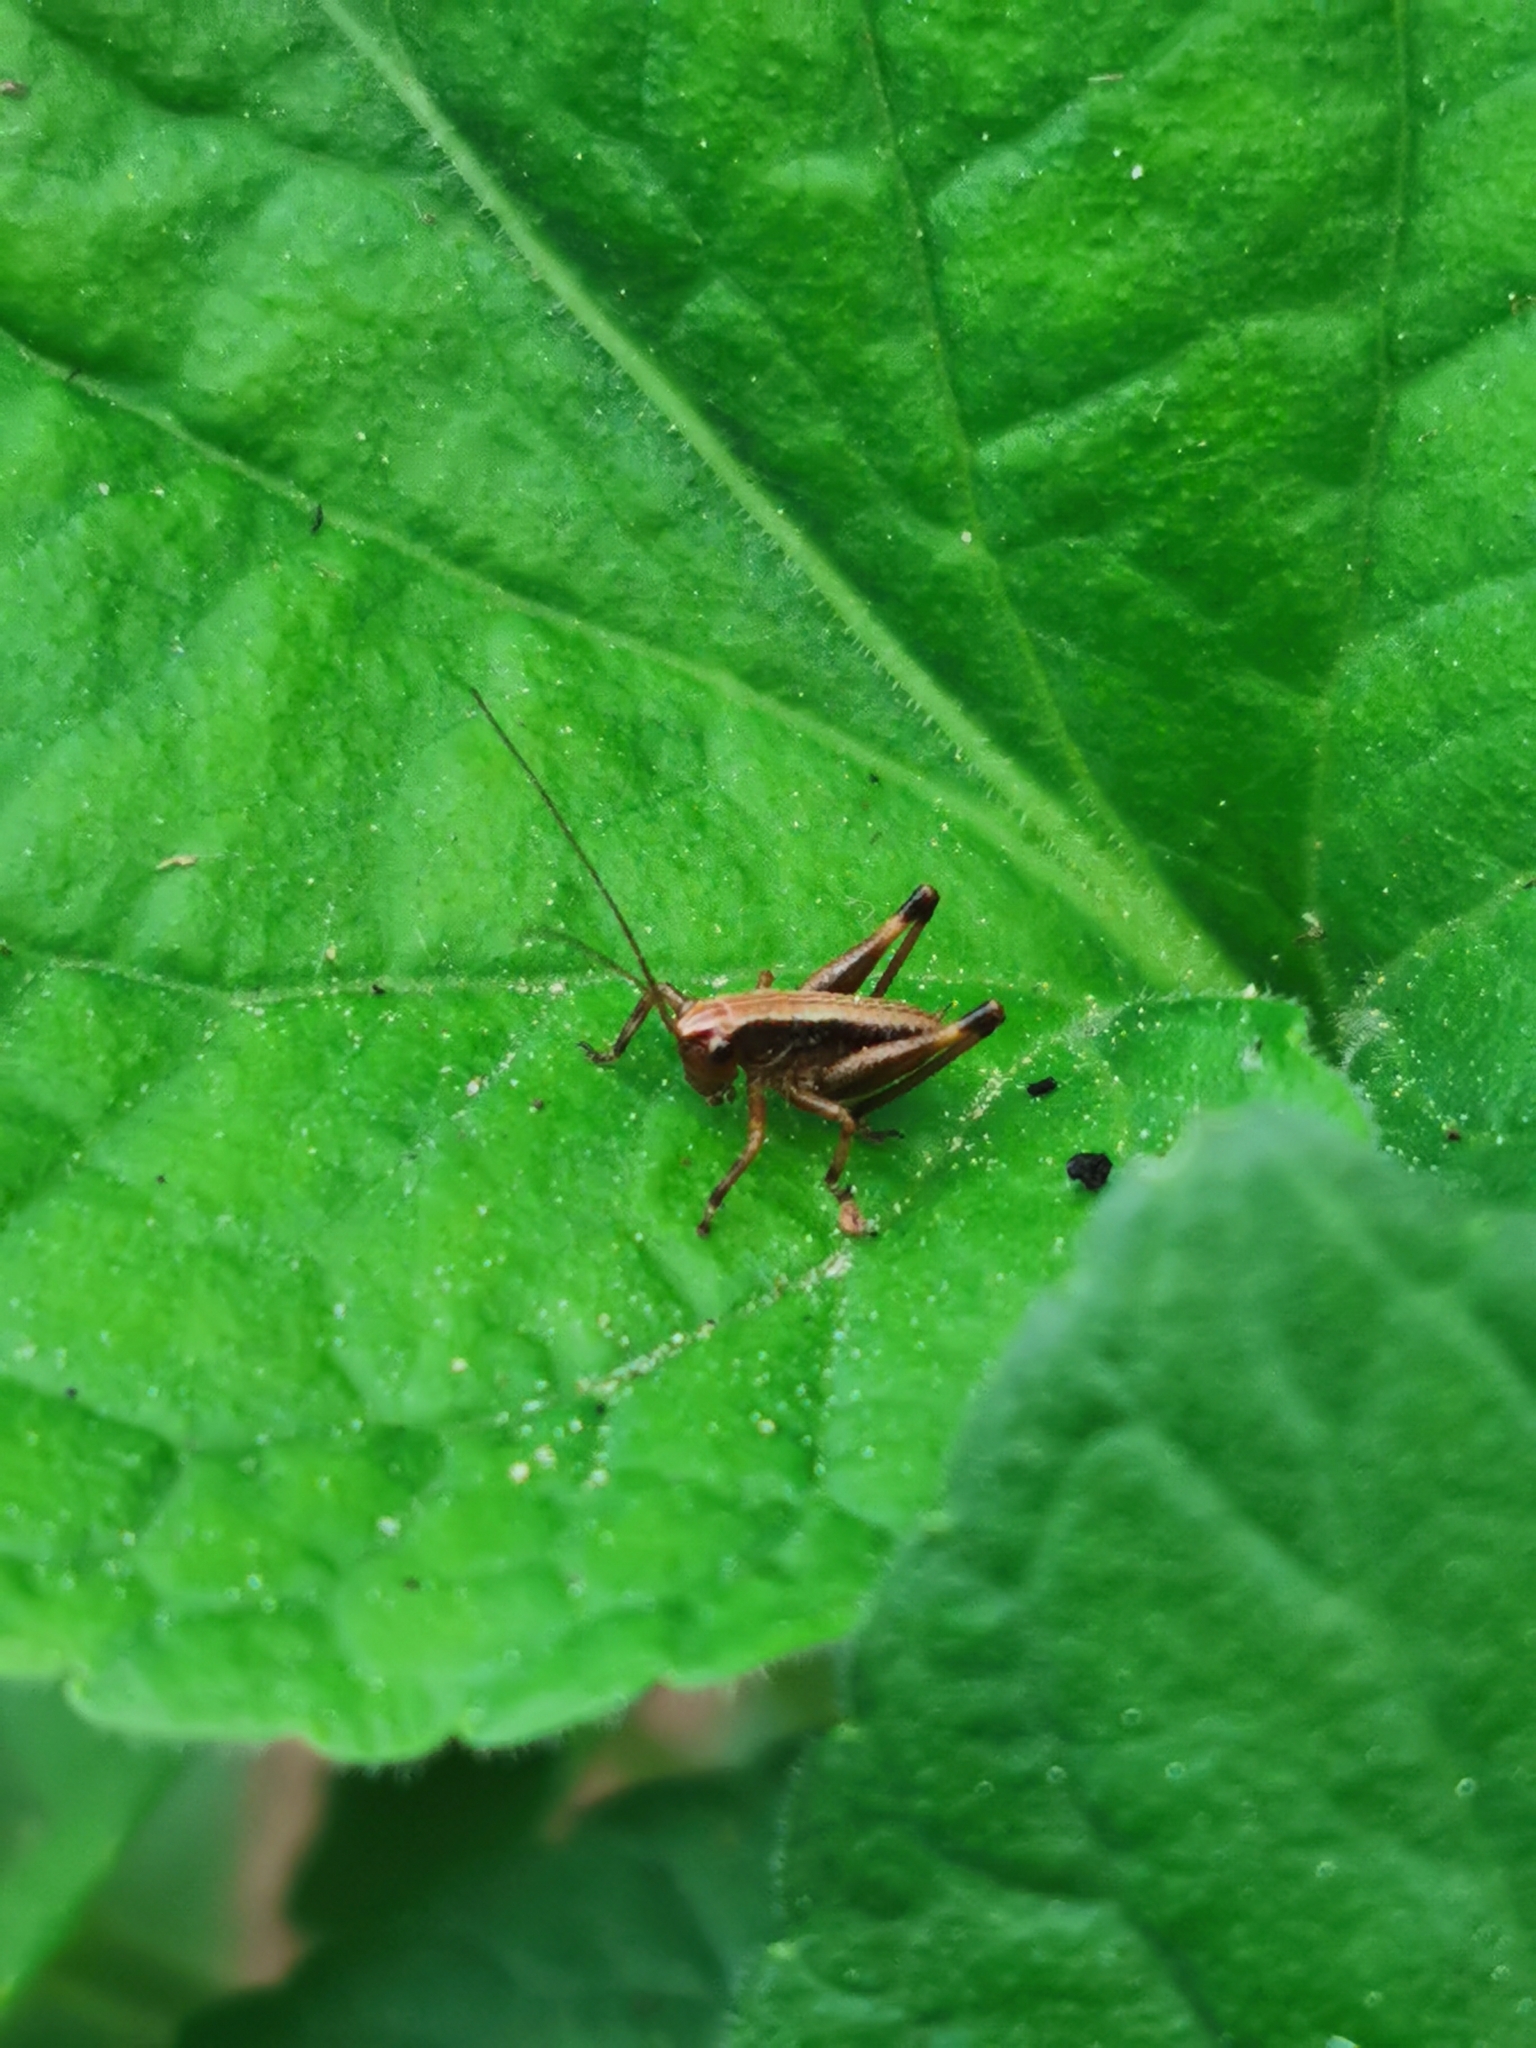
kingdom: Animalia
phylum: Arthropoda
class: Insecta
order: Orthoptera
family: Tettigoniidae
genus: Pholidoptera
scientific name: Pholidoptera griseoaptera
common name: Dark bush-cricket
